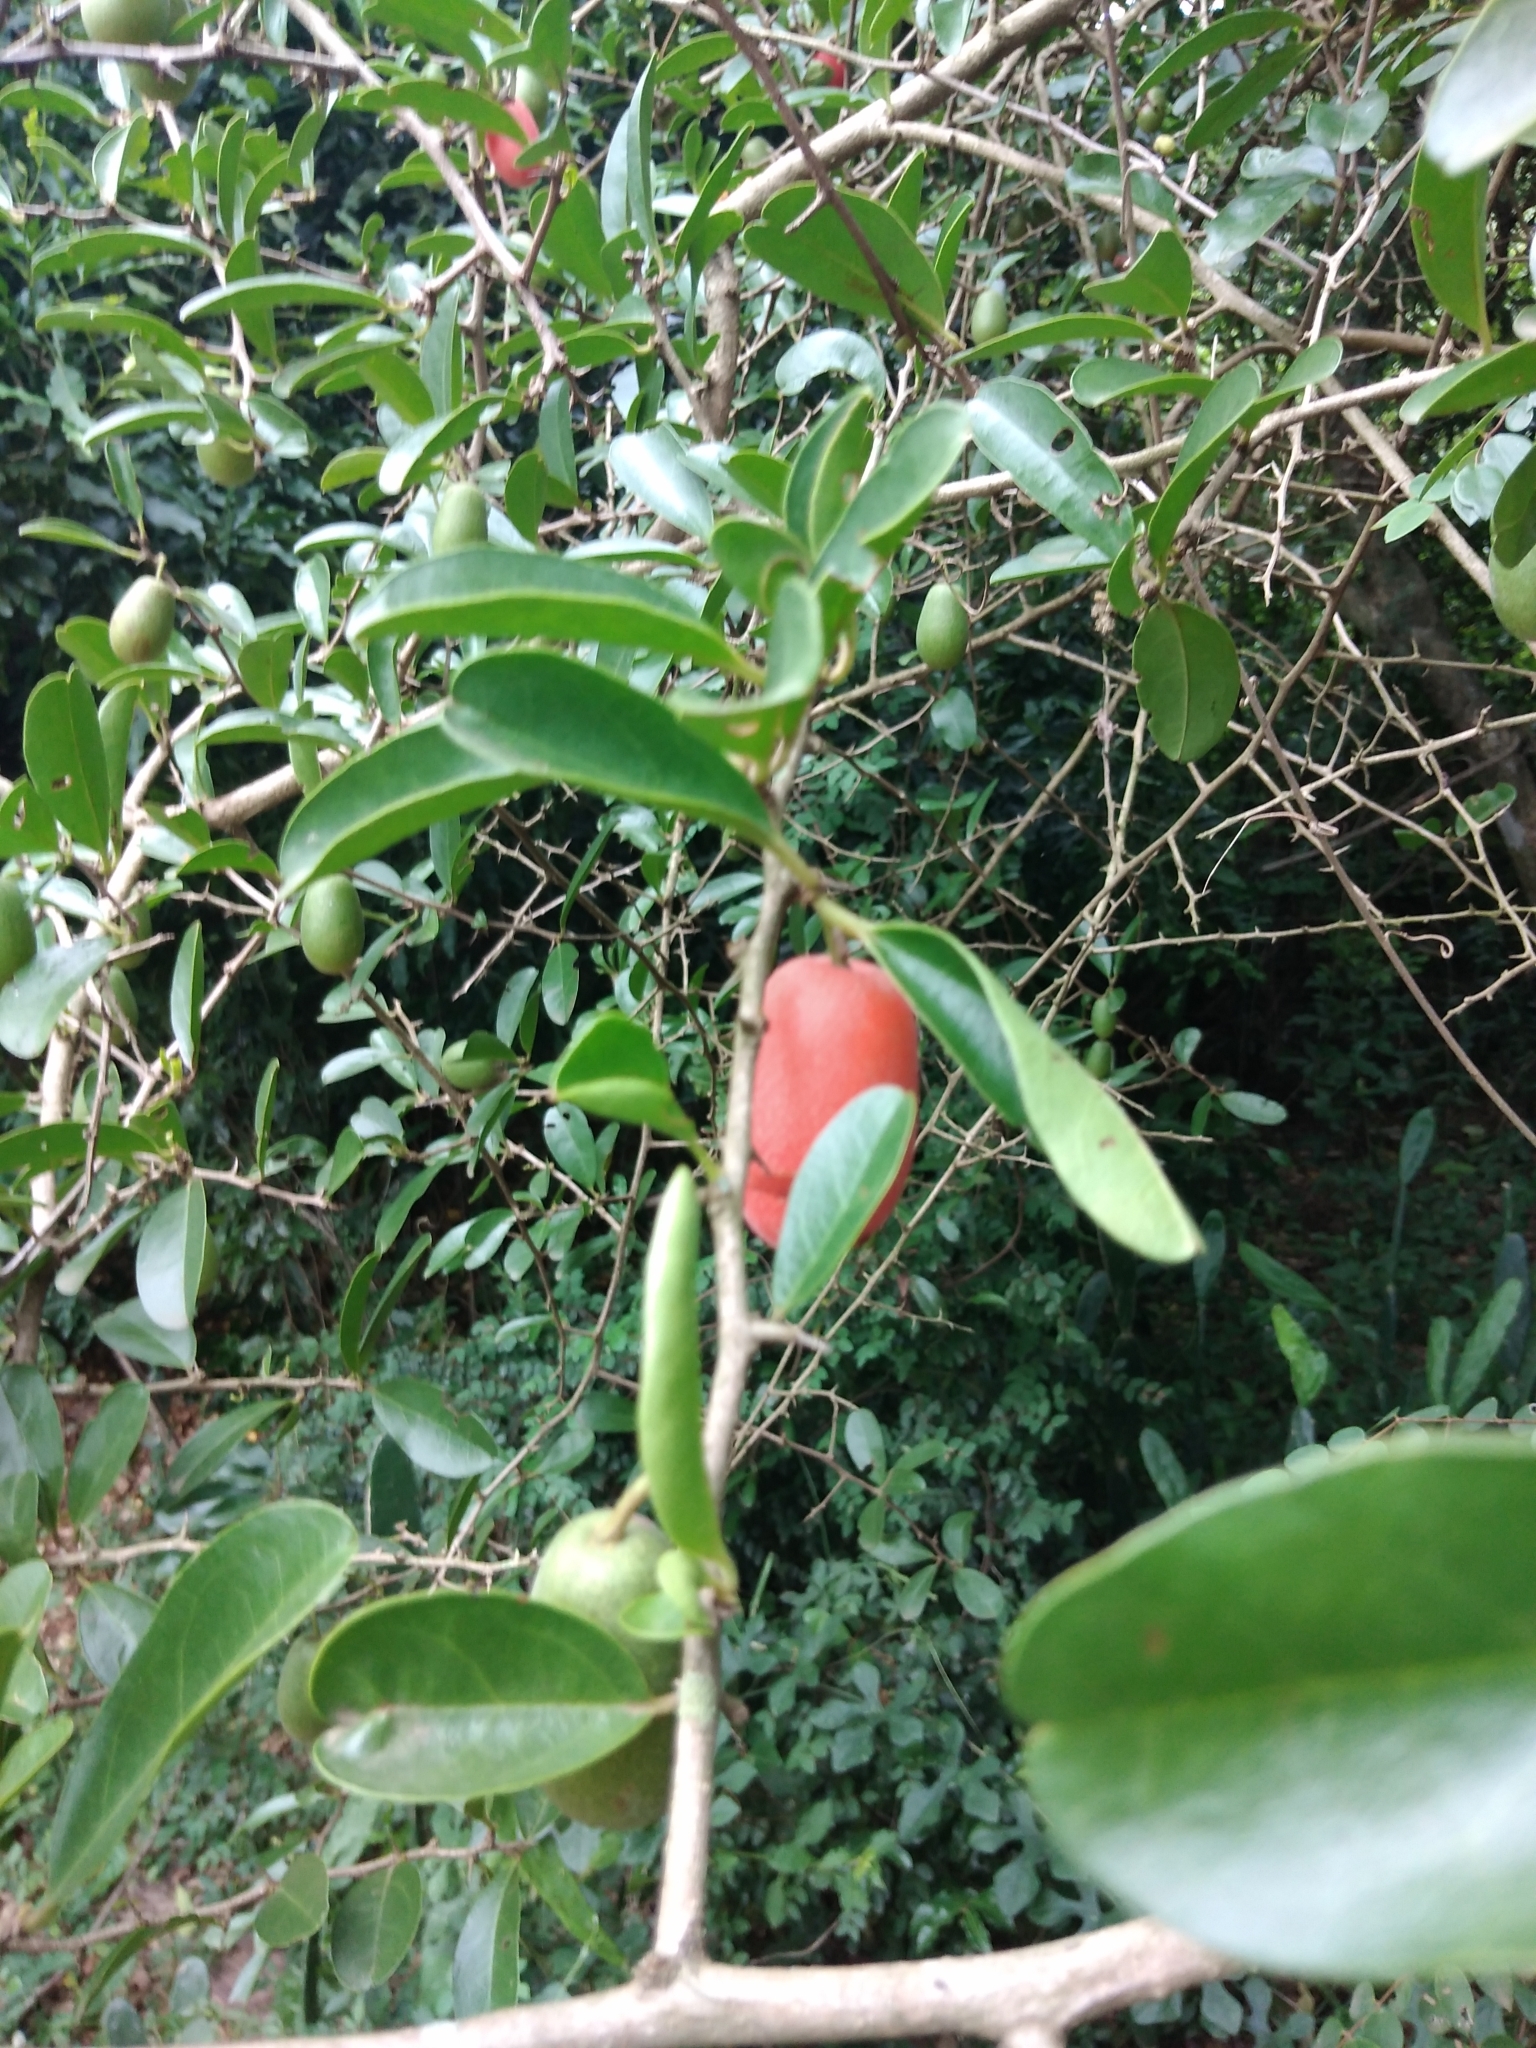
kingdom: Plantae
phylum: Tracheophyta
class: Magnoliopsida
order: Santalales
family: Ximeniaceae
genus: Ximenia
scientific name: Ximenia caffra
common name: Large sourplum
